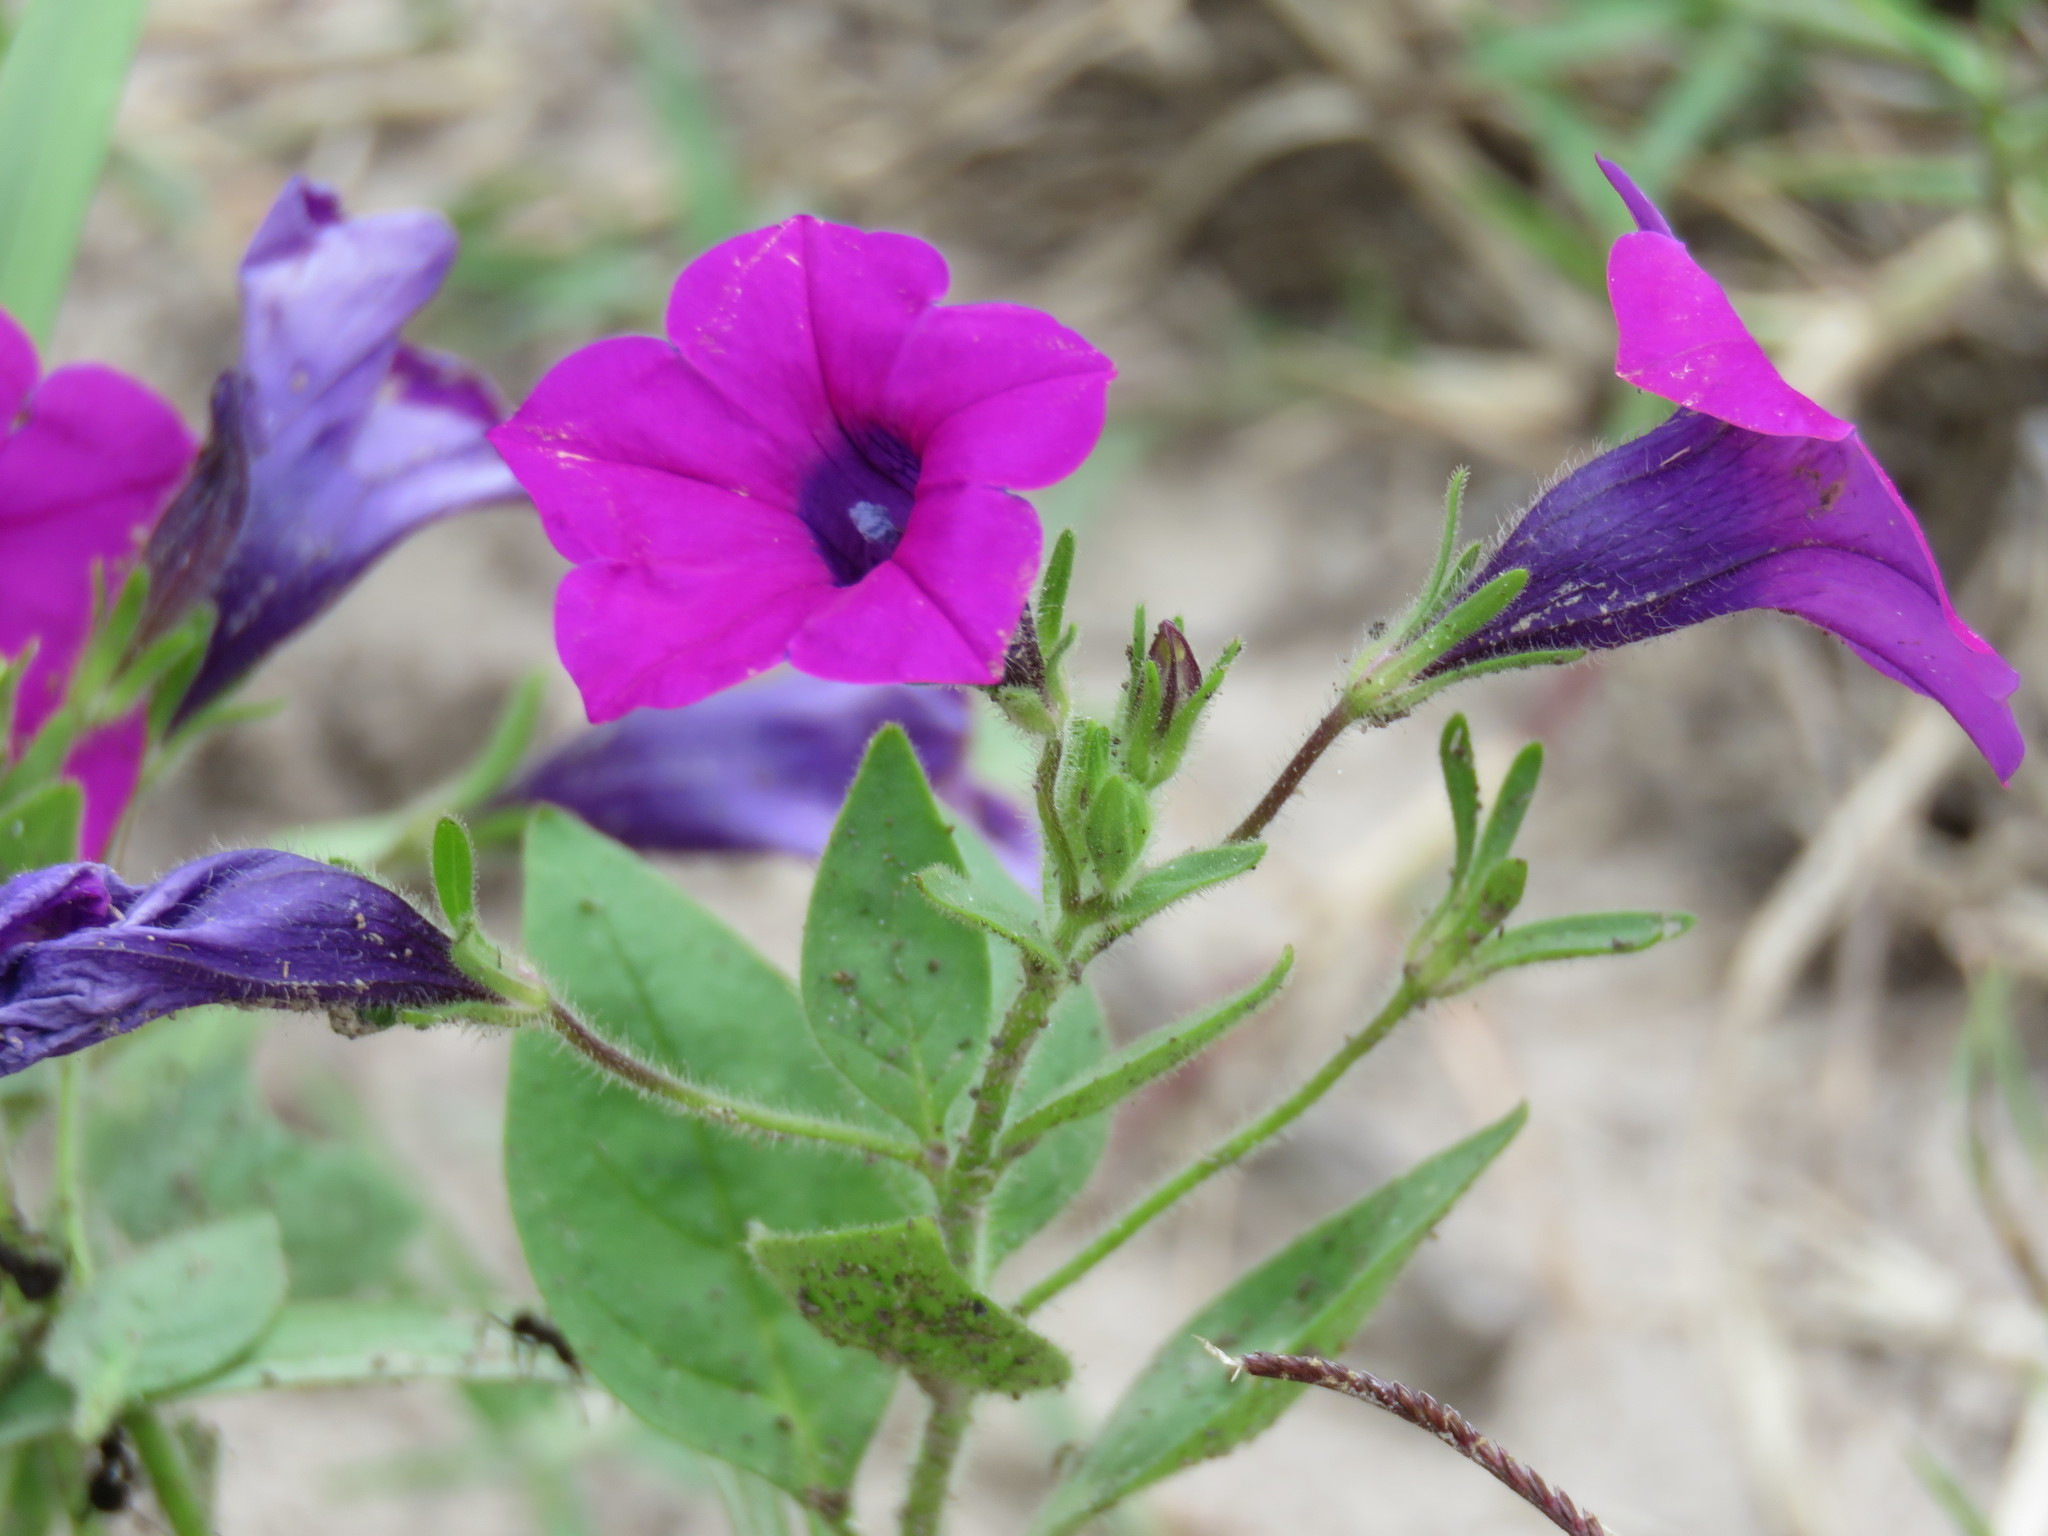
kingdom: Plantae
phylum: Tracheophyta
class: Magnoliopsida
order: Solanales
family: Solanaceae
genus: Petunia
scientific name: Petunia integrifolia
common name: Violet-flower petunia
